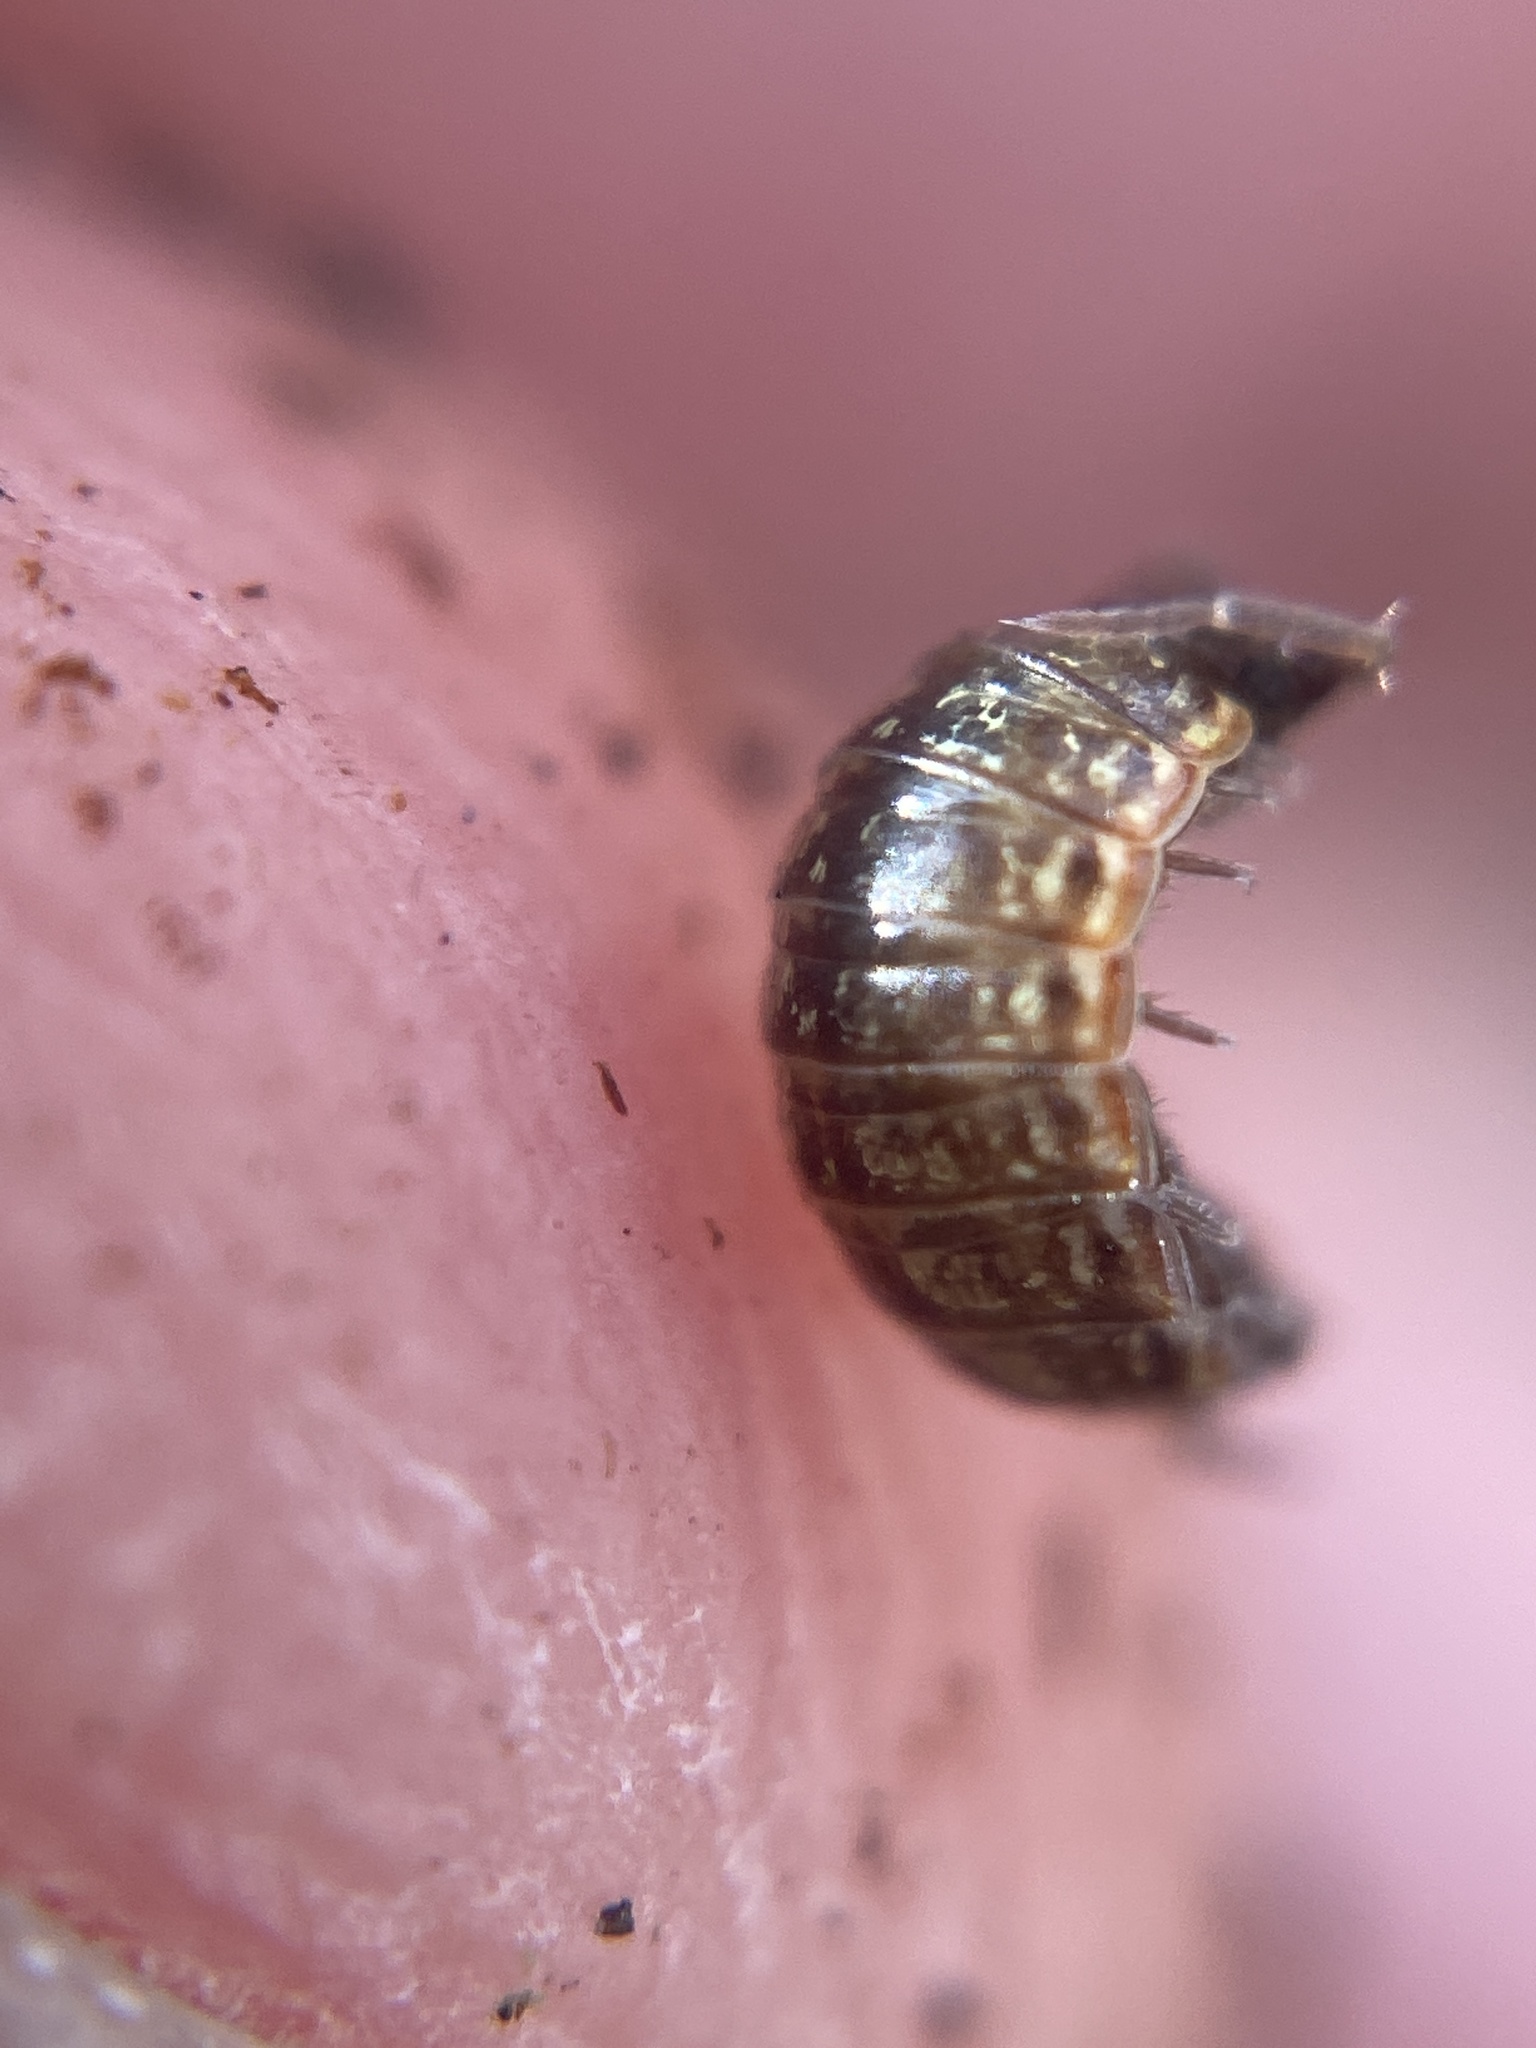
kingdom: Animalia
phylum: Arthropoda
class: Malacostraca
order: Isopoda
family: Philosciidae
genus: Philoscia
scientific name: Philoscia muscorum
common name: Common striped woodlouse
